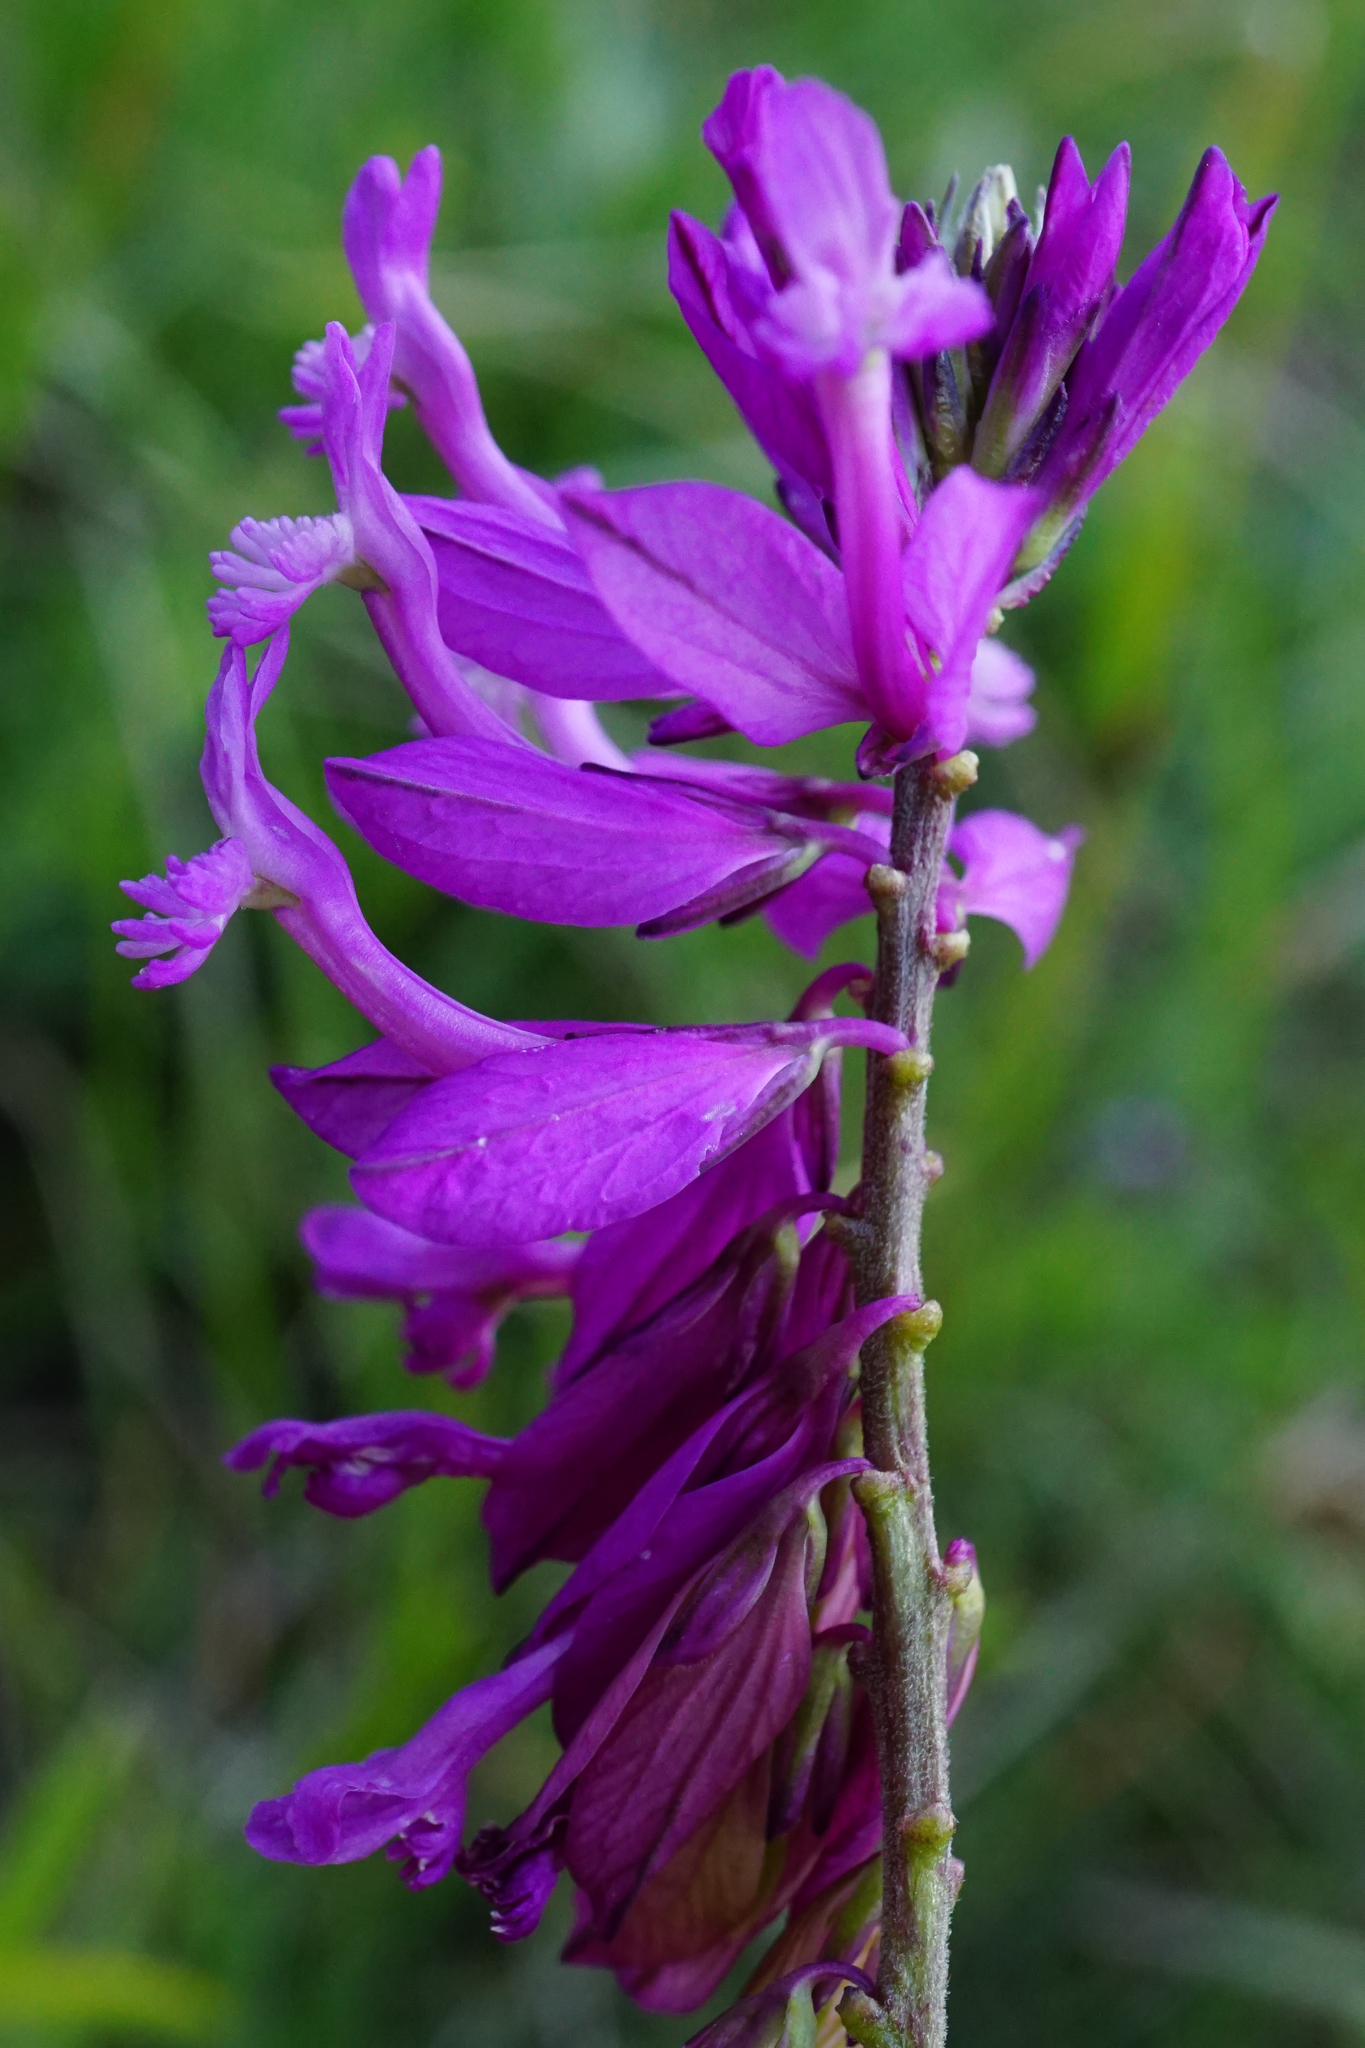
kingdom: Plantae
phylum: Tracheophyta
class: Magnoliopsida
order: Fabales
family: Polygalaceae
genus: Polygala
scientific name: Polygala major
